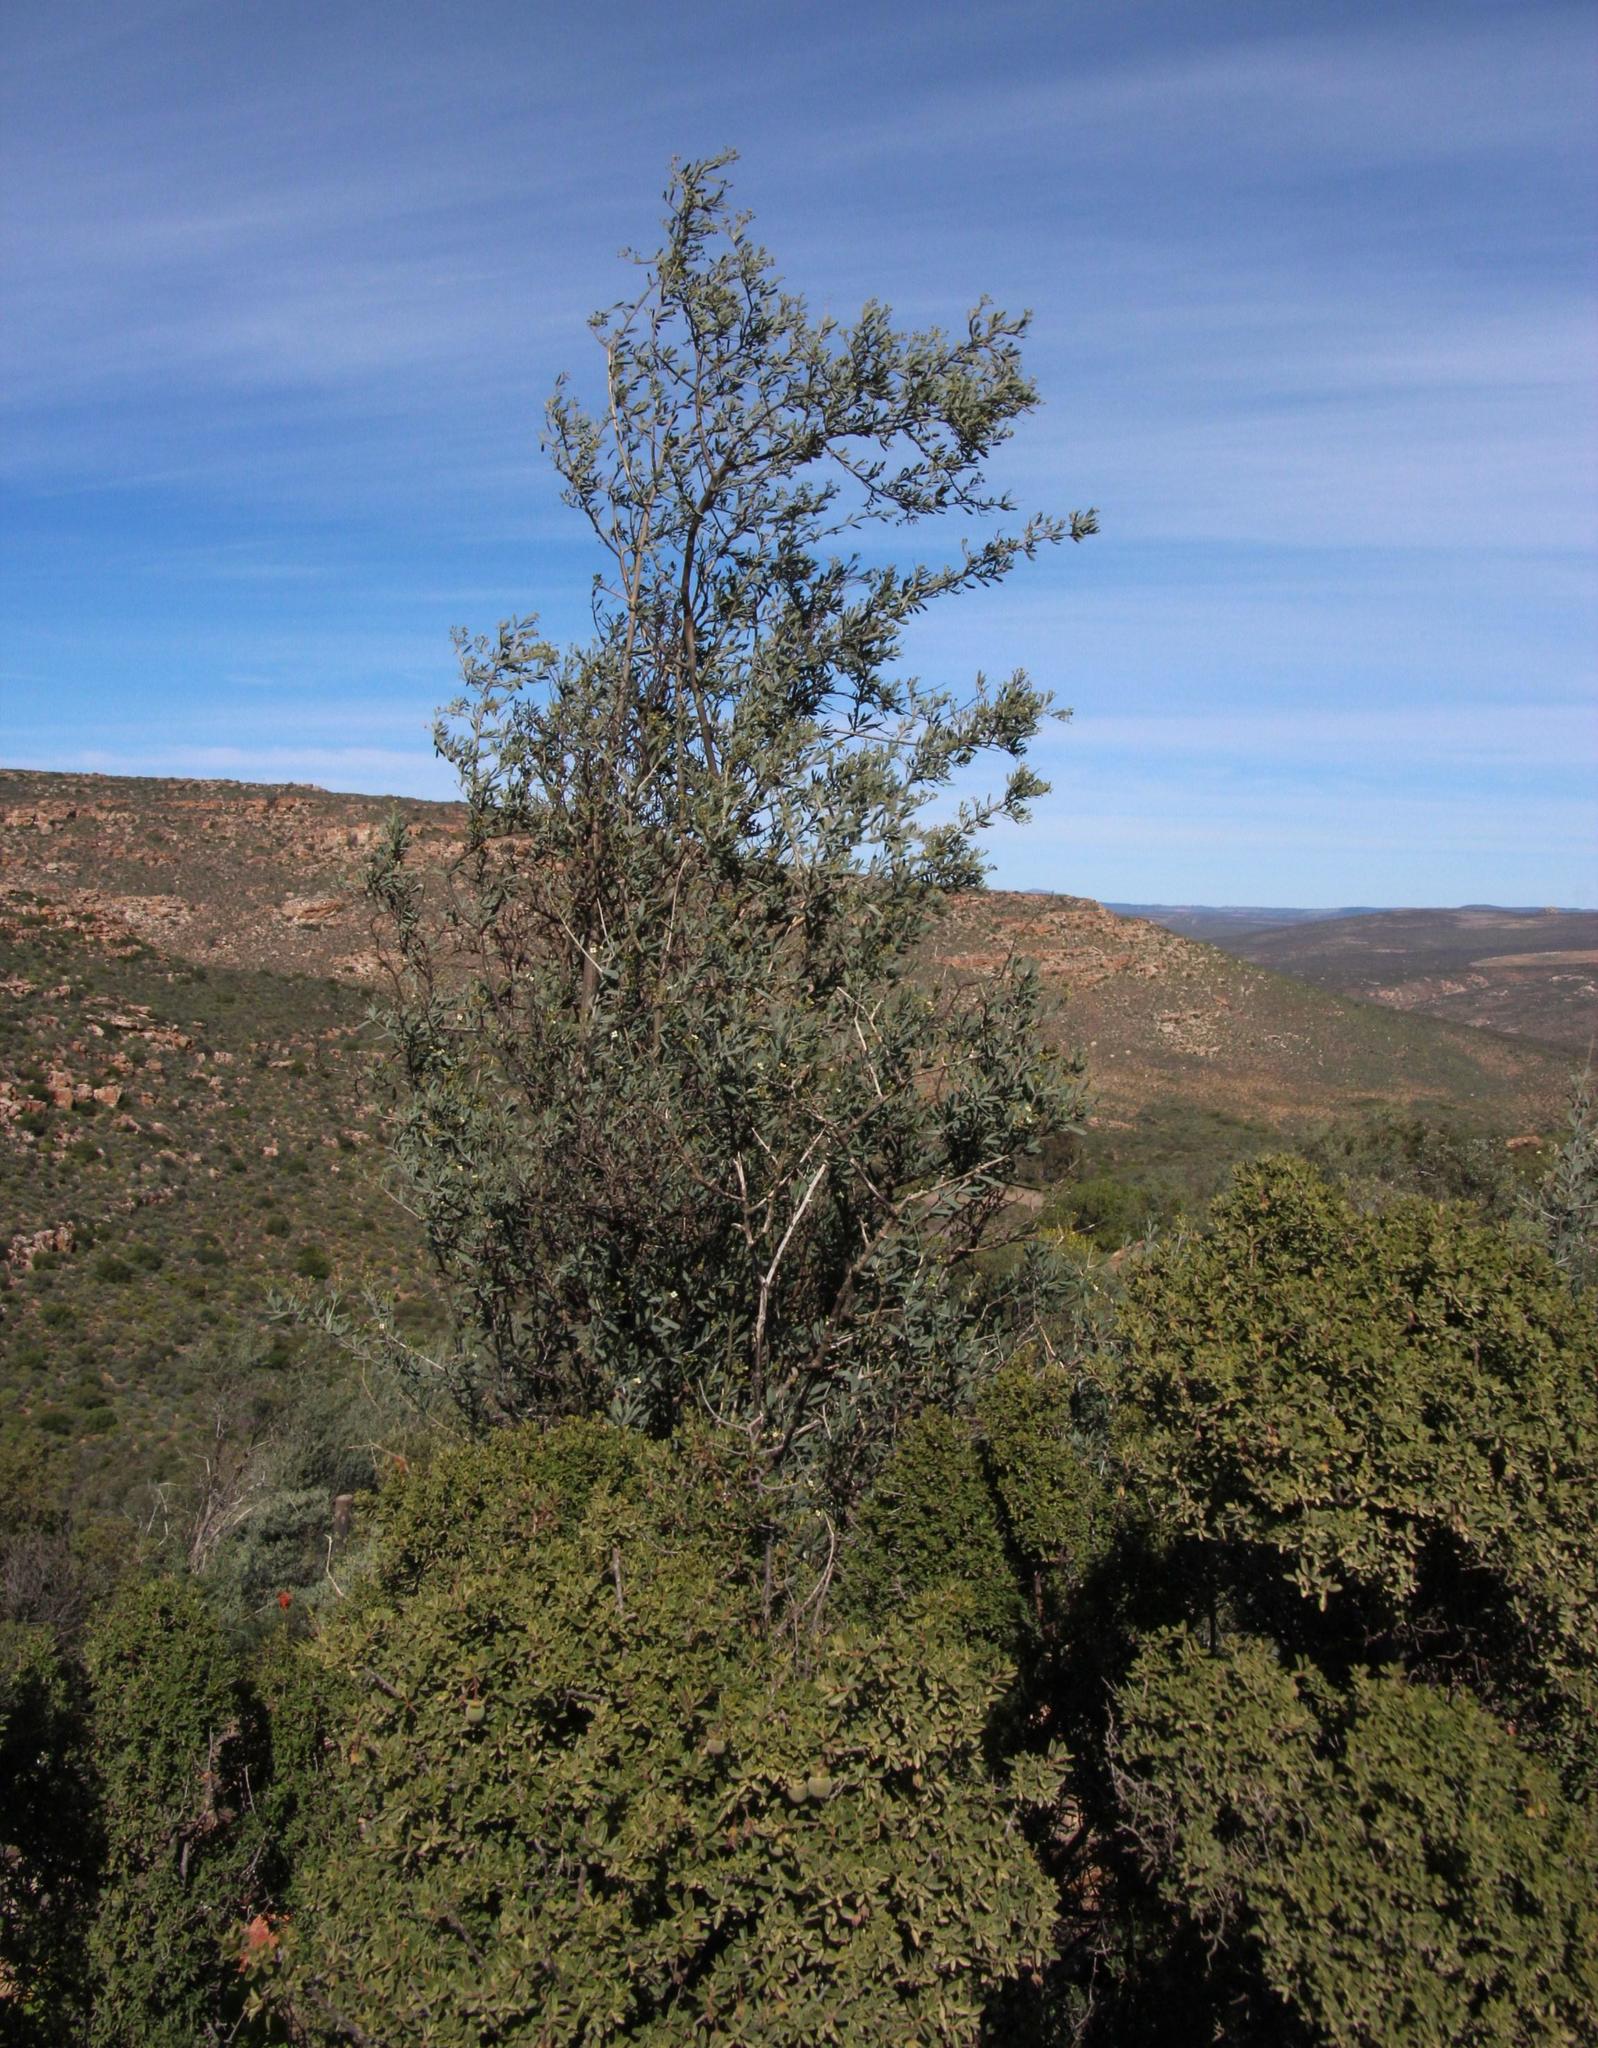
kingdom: Plantae
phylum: Tracheophyta
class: Magnoliopsida
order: Solanales
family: Montiniaceae
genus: Montinia
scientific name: Montinia caryophyllacea
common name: Wild clove-bush
